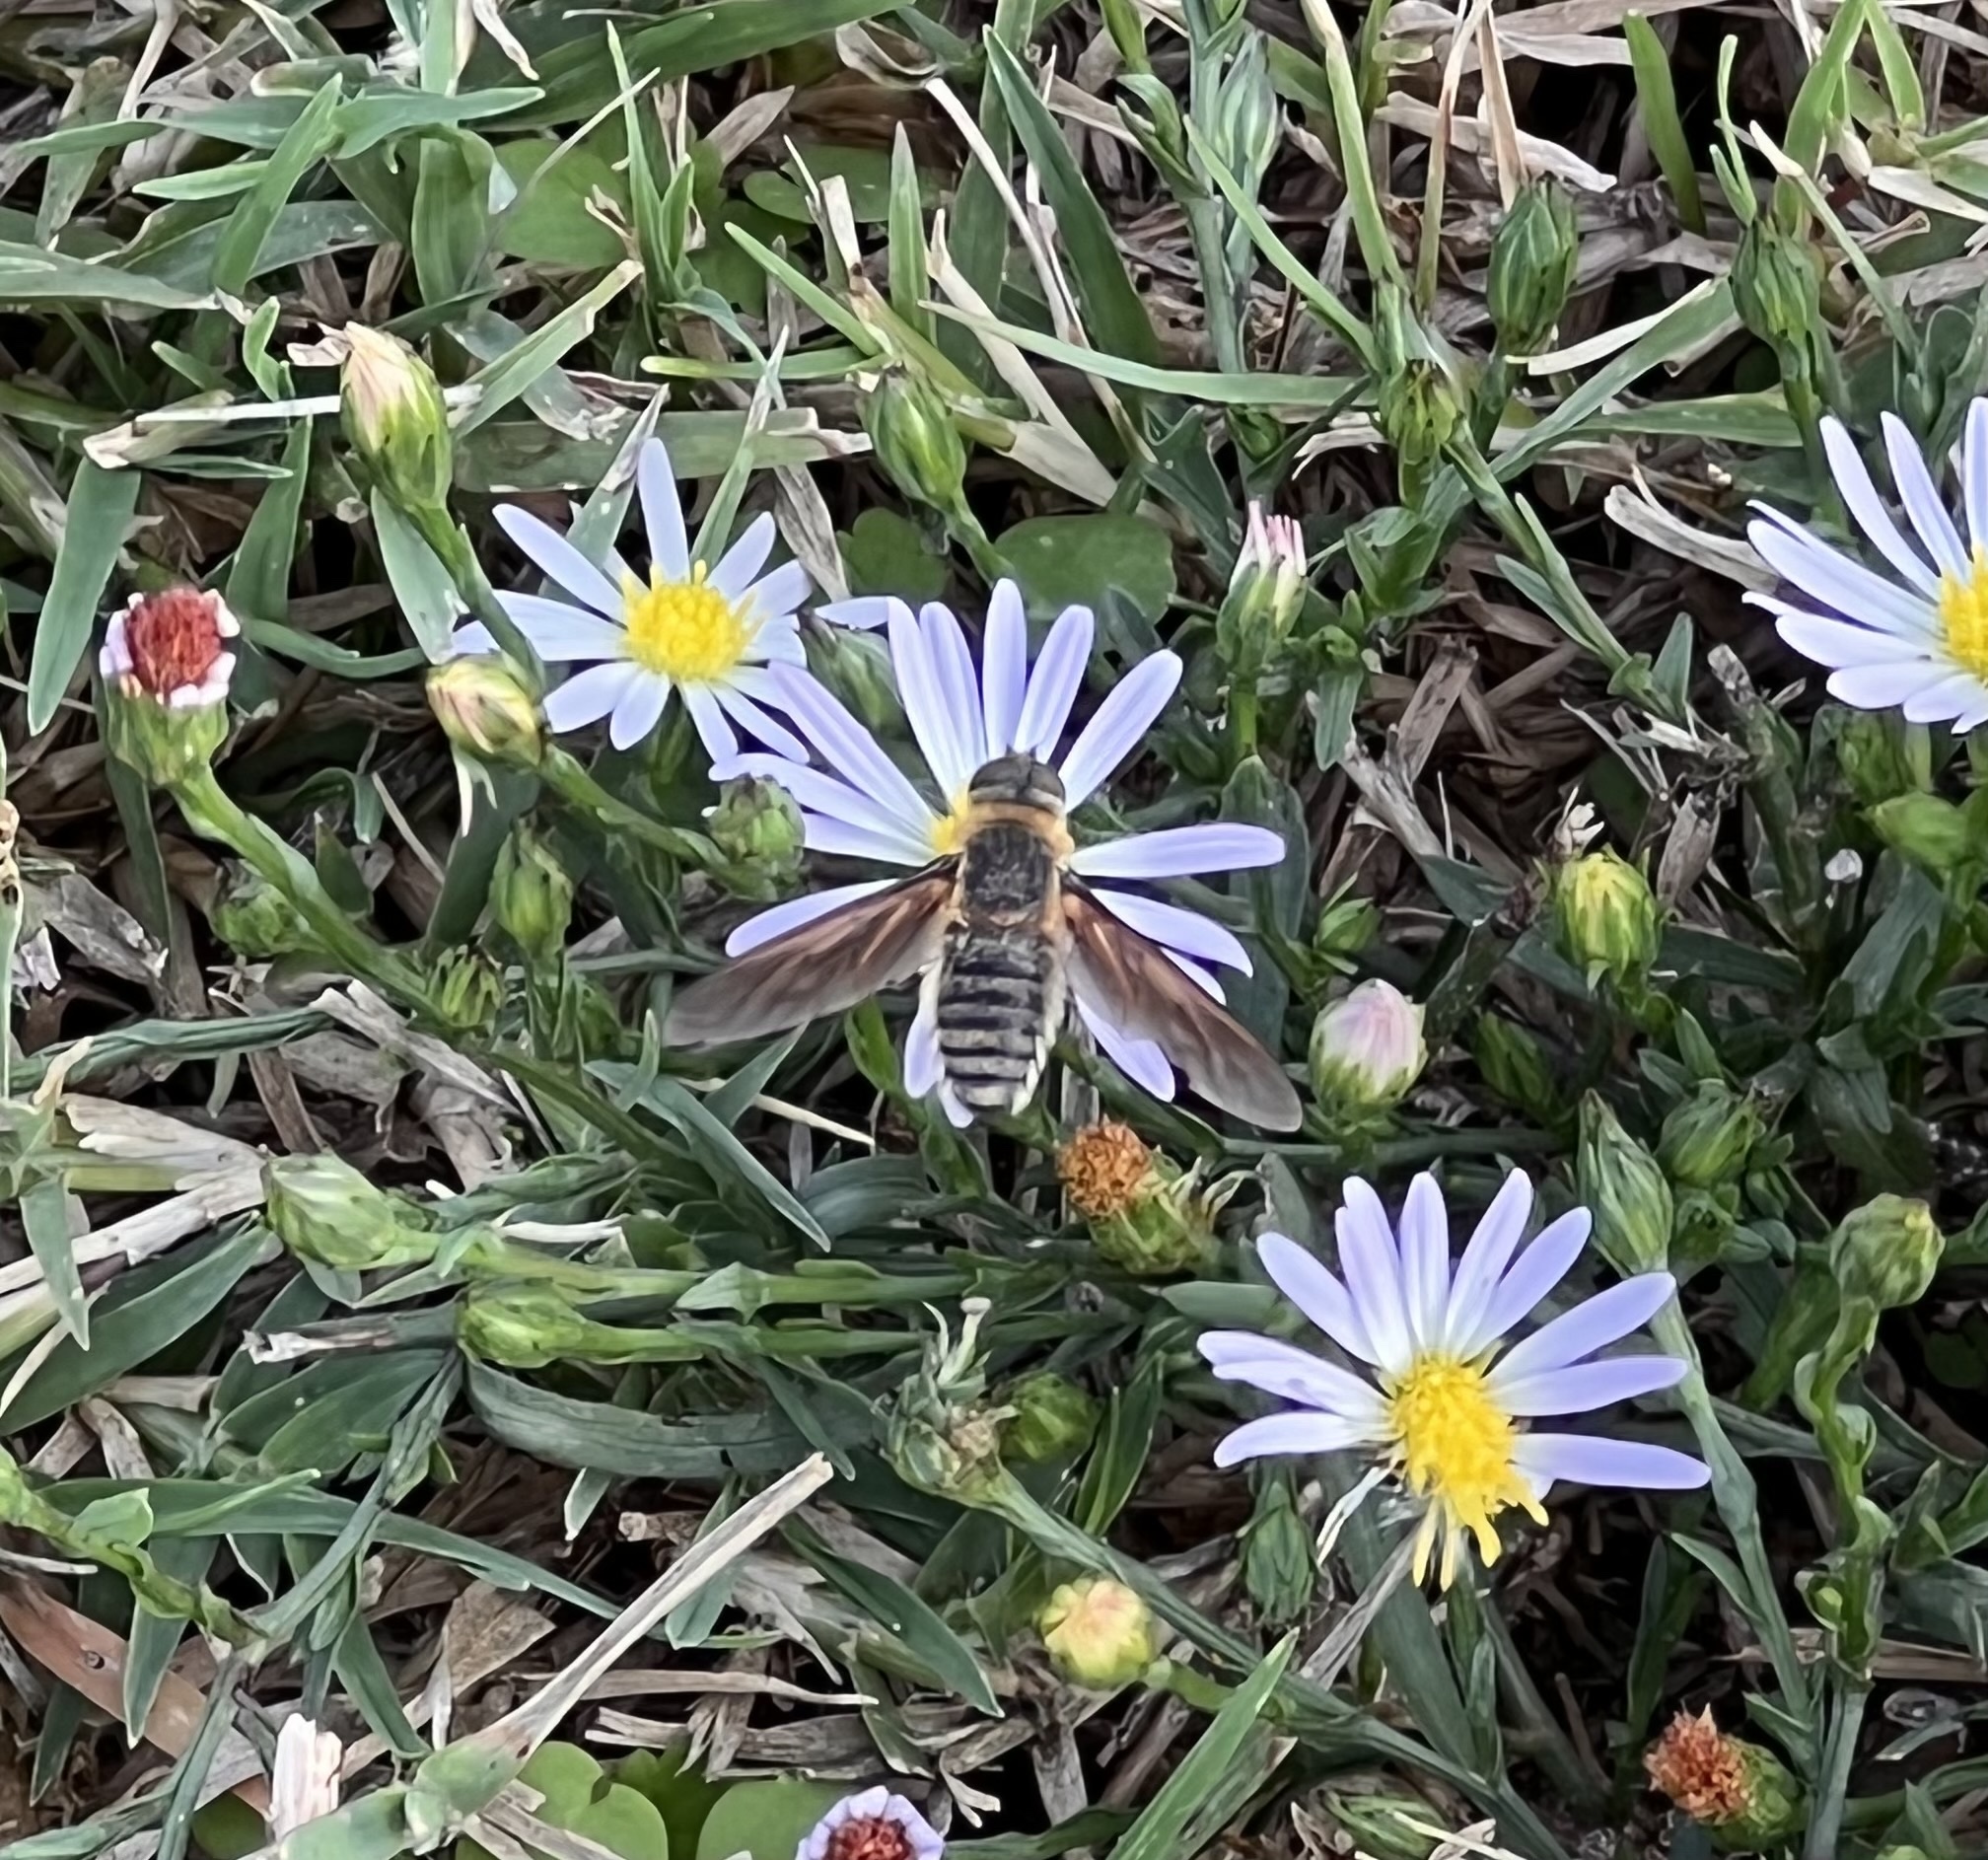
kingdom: Animalia
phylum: Arthropoda
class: Insecta
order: Diptera
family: Bombyliidae
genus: Poecilanthrax
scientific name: Poecilanthrax lucifer
